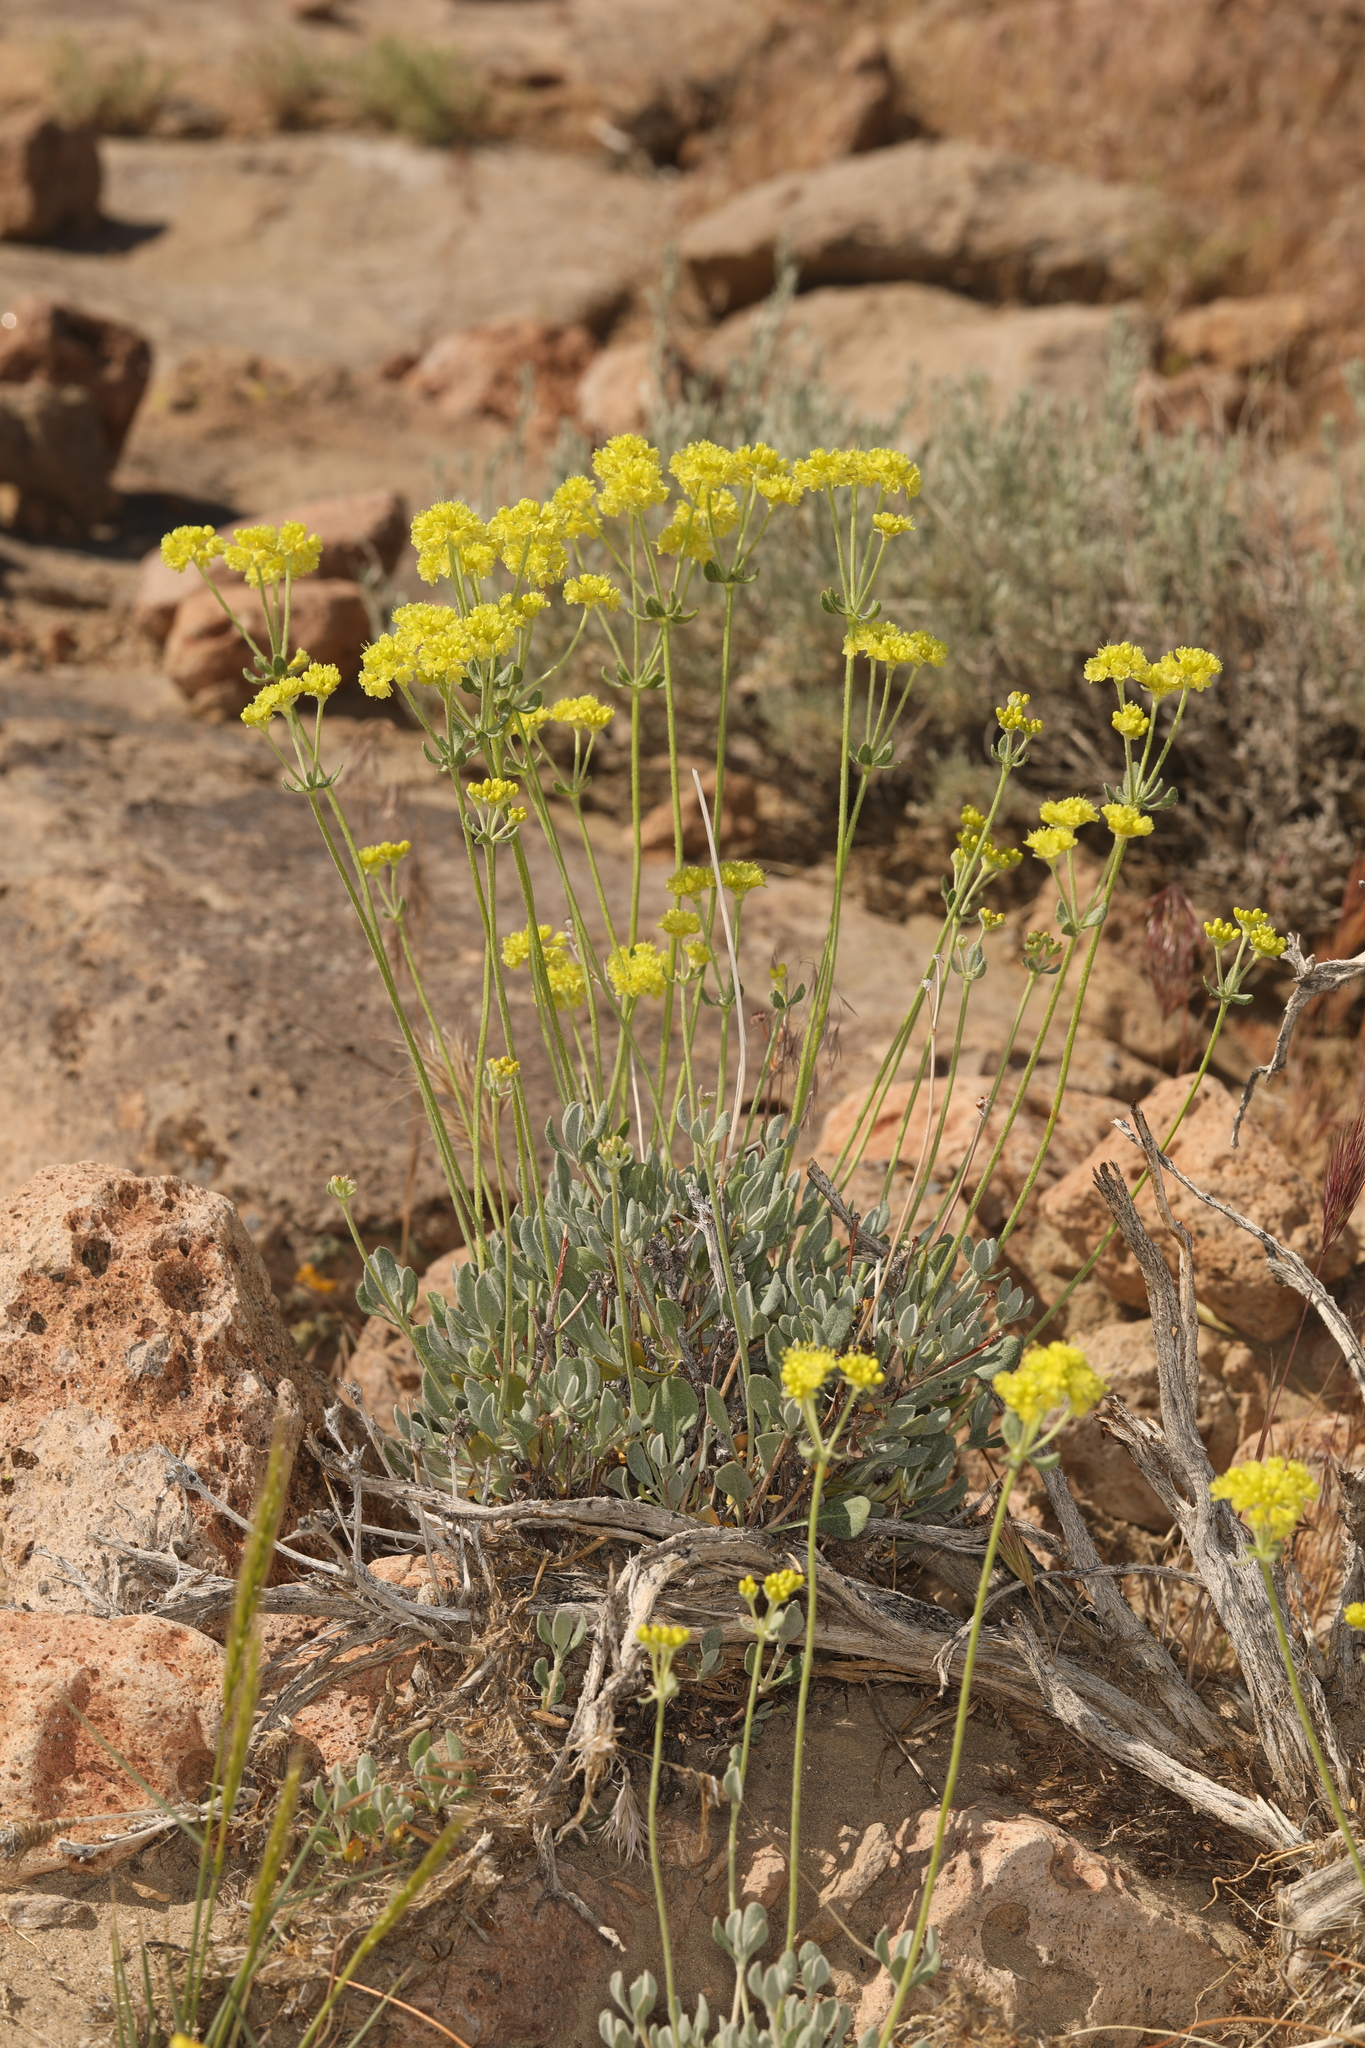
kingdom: Plantae
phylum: Tracheophyta
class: Magnoliopsida
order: Caryophyllales
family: Polygonaceae
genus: Eriogonum
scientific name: Eriogonum umbellatum
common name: Sulfur-buckwheat
